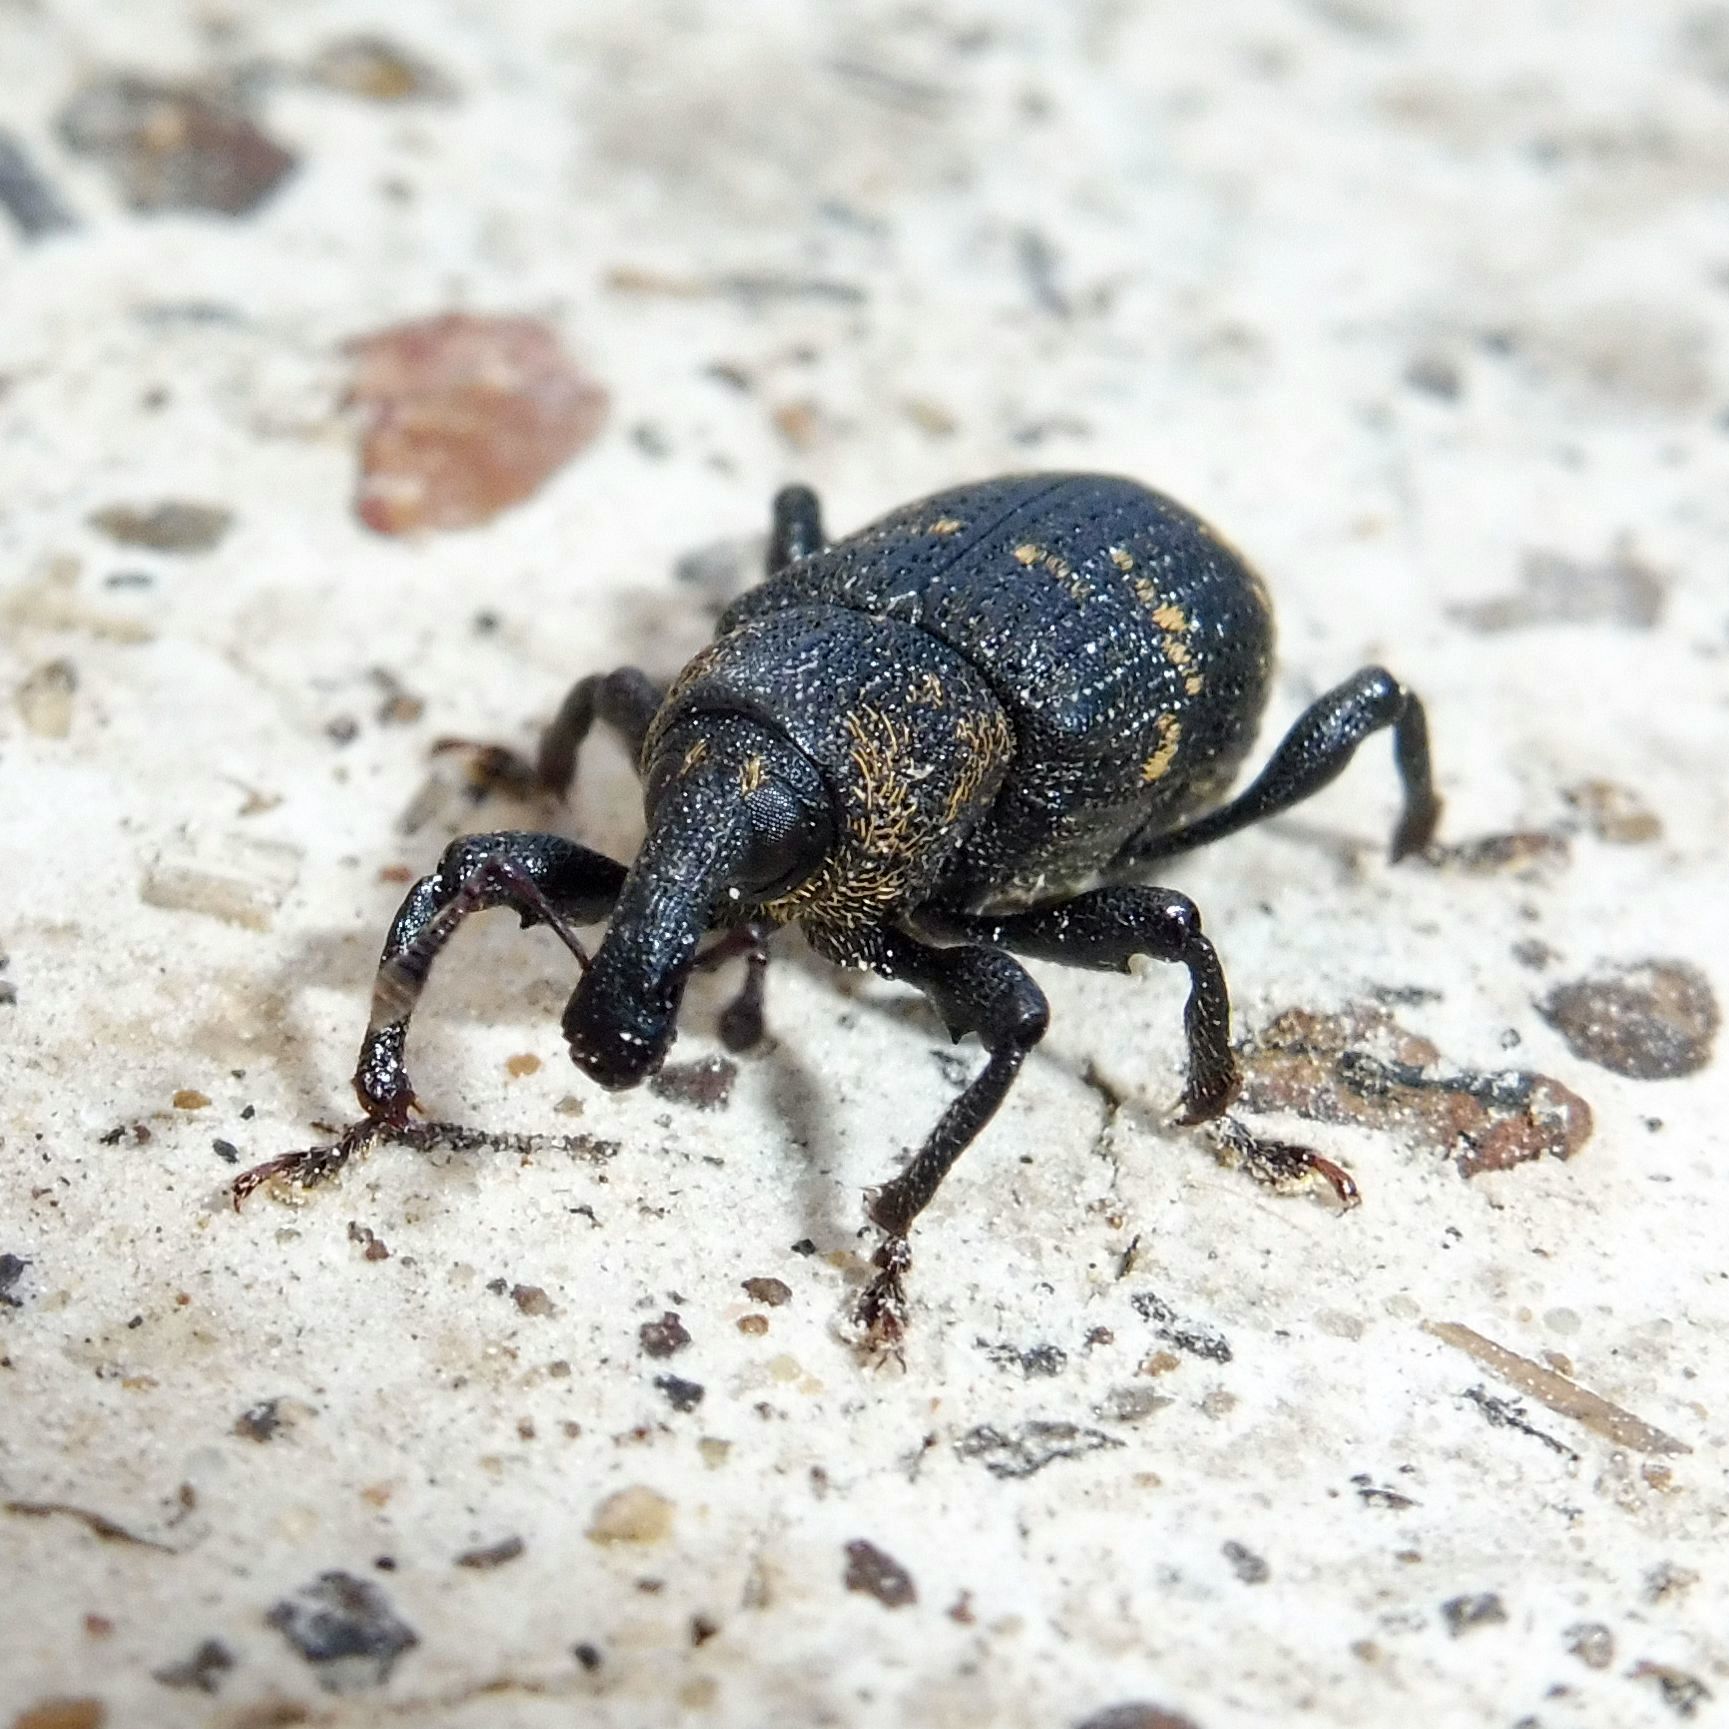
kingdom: Animalia
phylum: Arthropoda
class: Insecta
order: Coleoptera
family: Curculionidae
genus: Hylobius
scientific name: Hylobius abietis
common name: Large pine weevil
